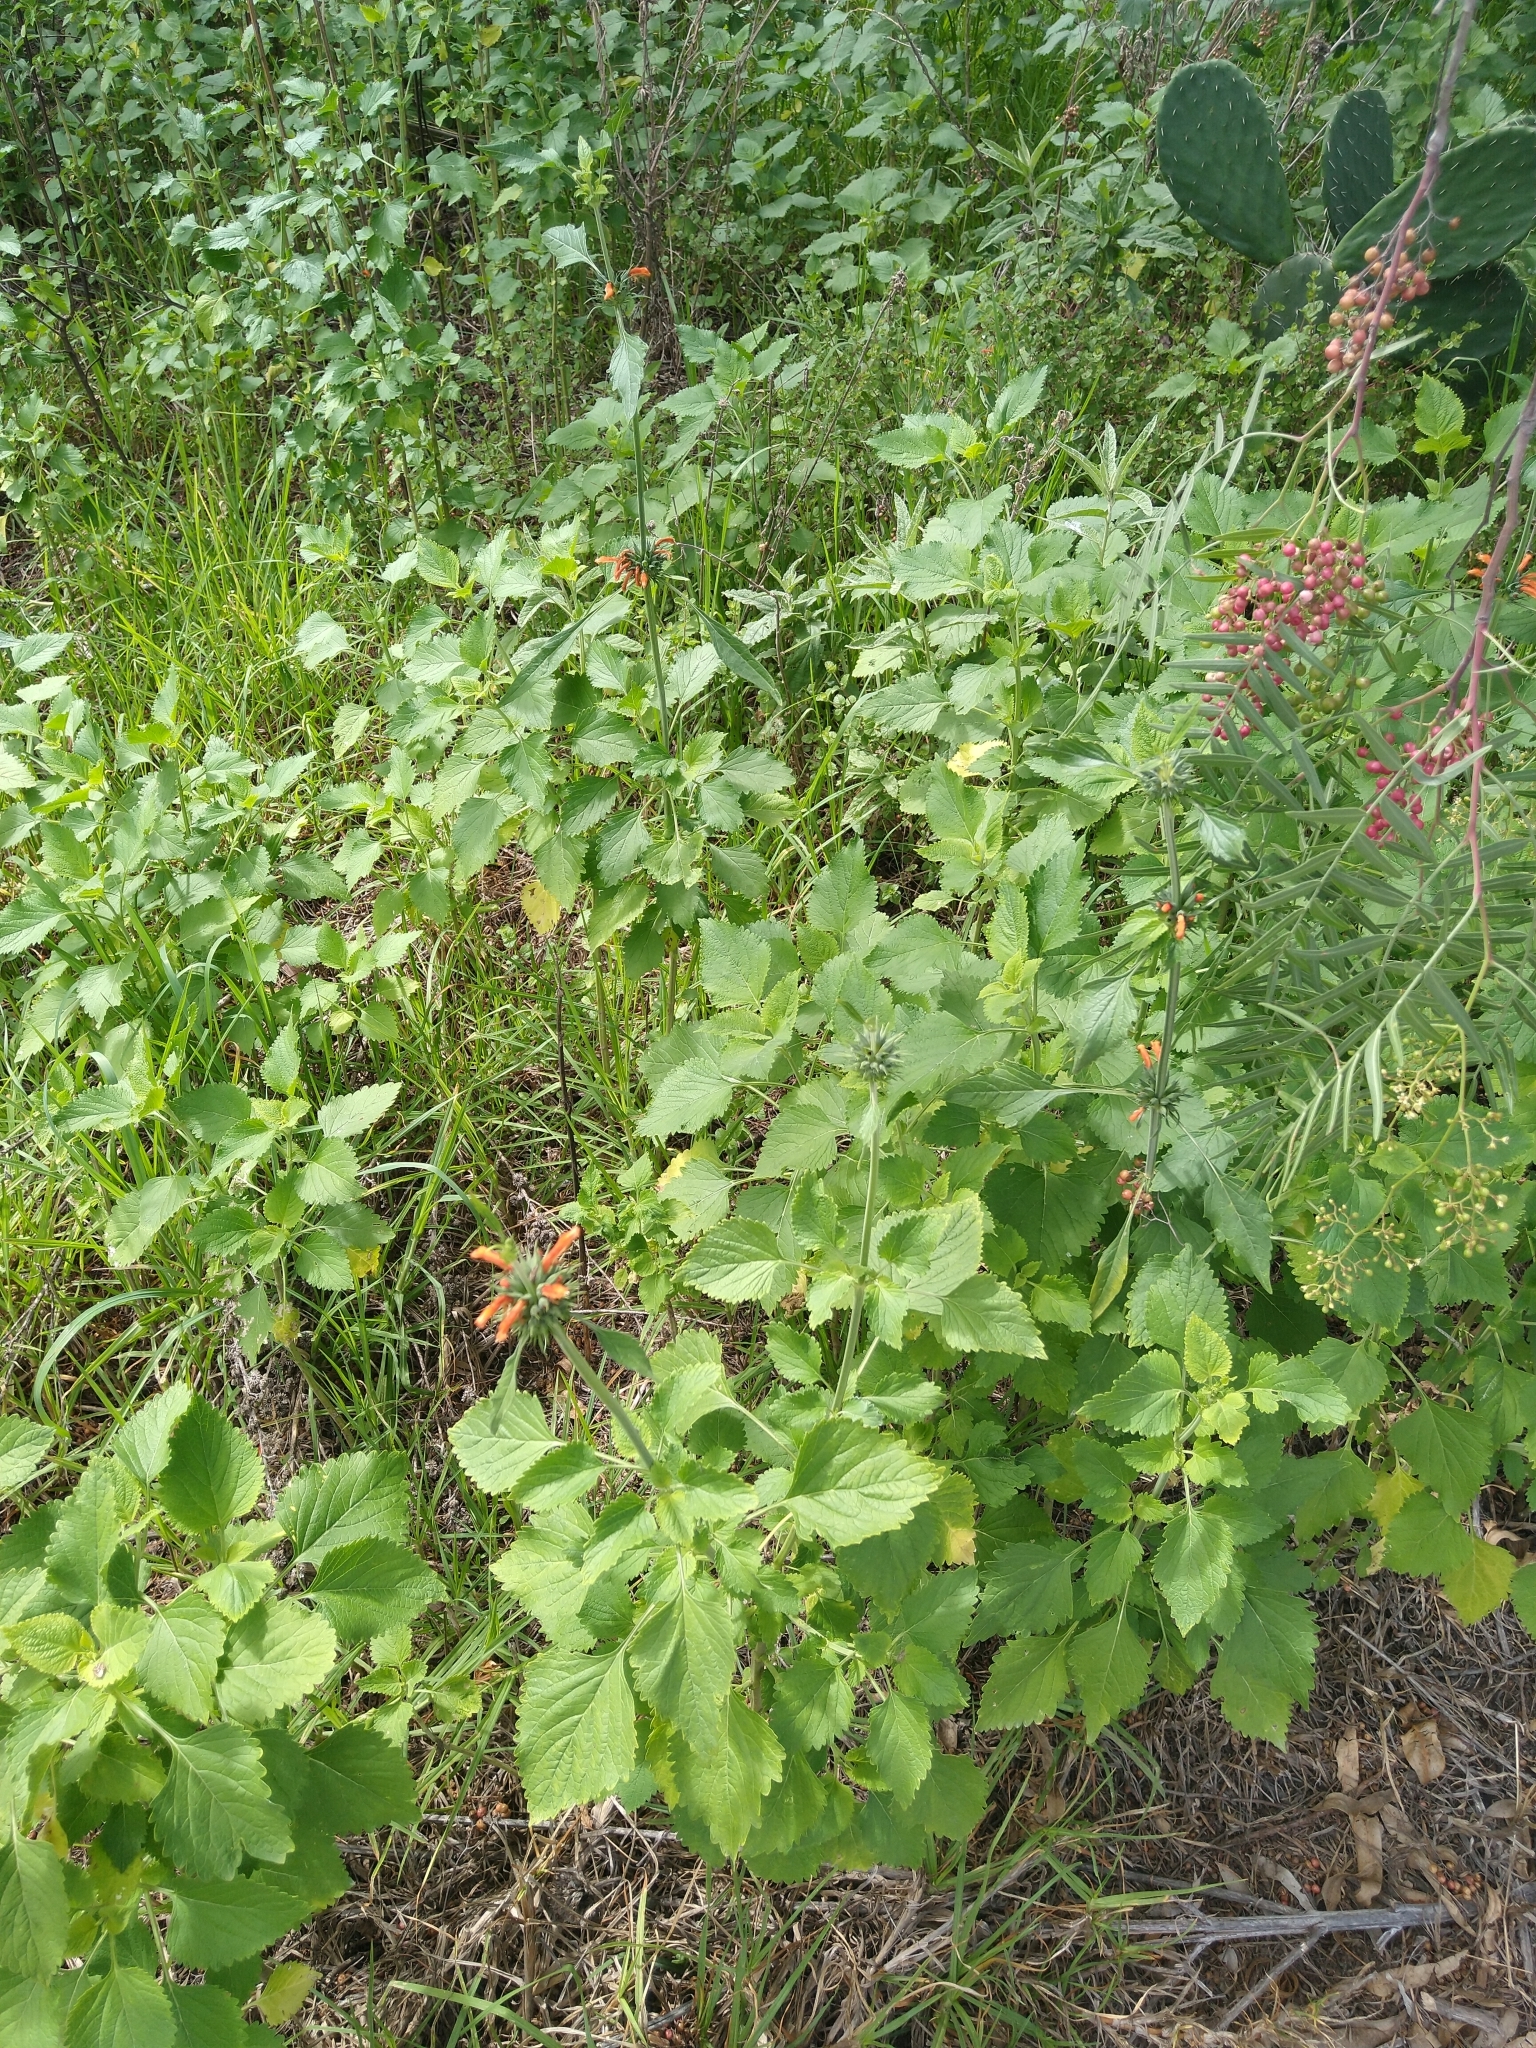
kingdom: Plantae
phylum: Tracheophyta
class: Magnoliopsida
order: Lamiales
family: Lamiaceae
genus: Leonotis
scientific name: Leonotis nepetifolia
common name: Christmas candlestick
